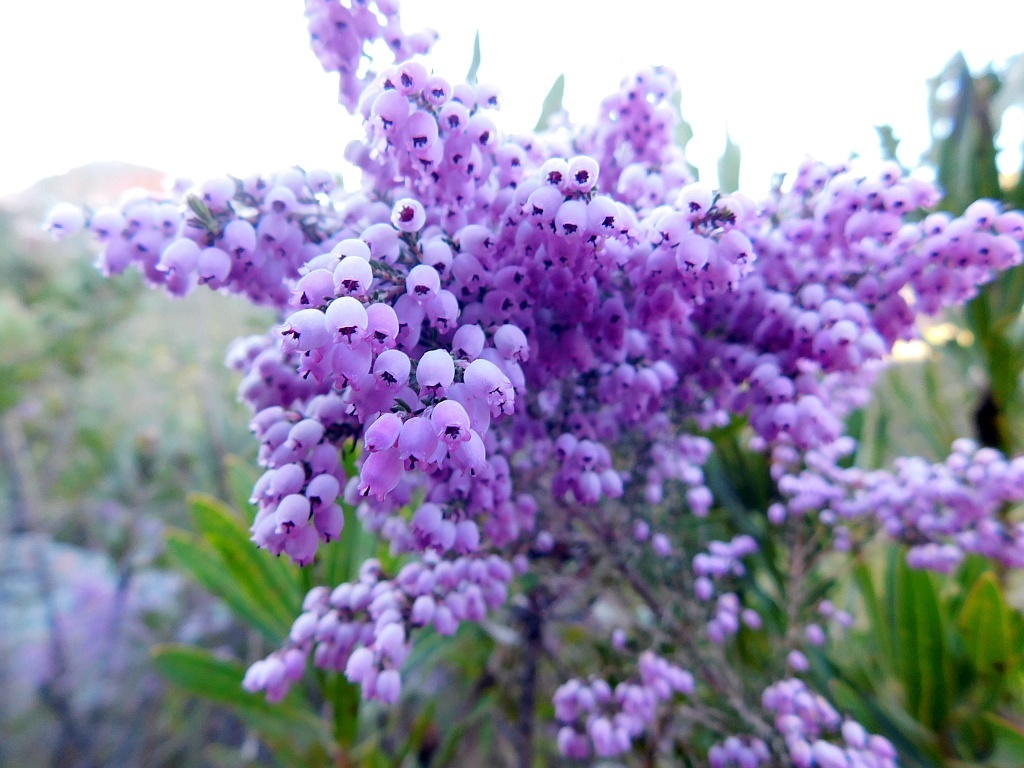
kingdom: Plantae
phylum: Tracheophyta
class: Magnoliopsida
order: Ericales
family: Ericaceae
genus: Erica
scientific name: Erica tomentosa
